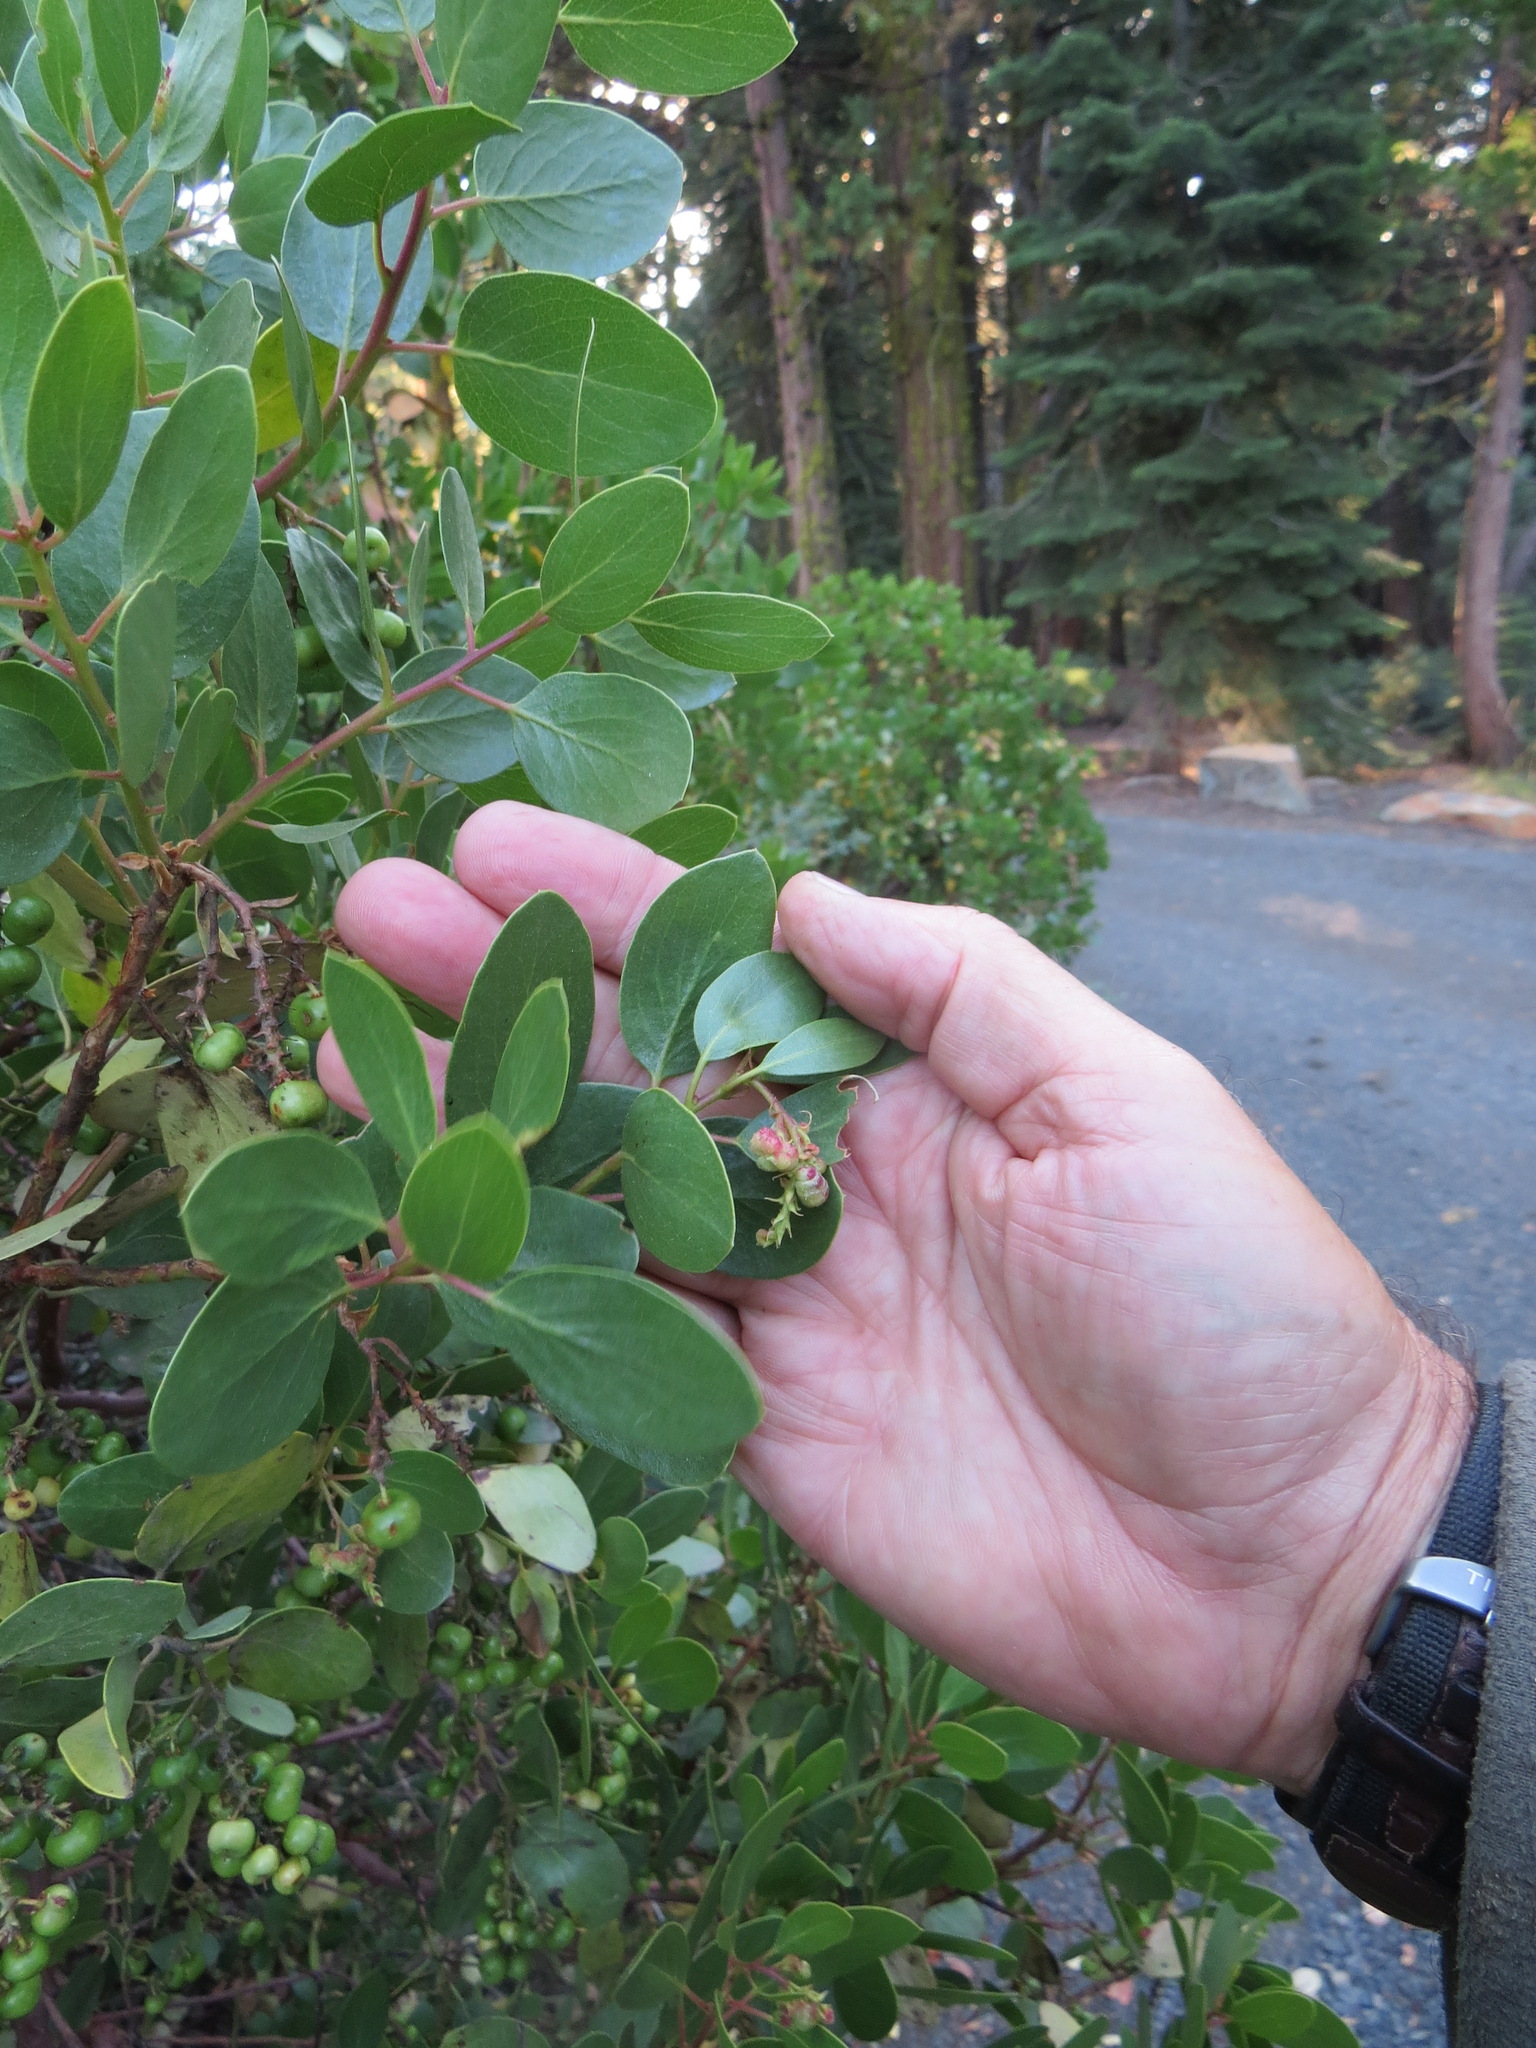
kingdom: Plantae
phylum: Tracheophyta
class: Magnoliopsida
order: Ericales
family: Ericaceae
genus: Arctostaphylos
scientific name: Arctostaphylos patula
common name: Green-leaf manzanita
